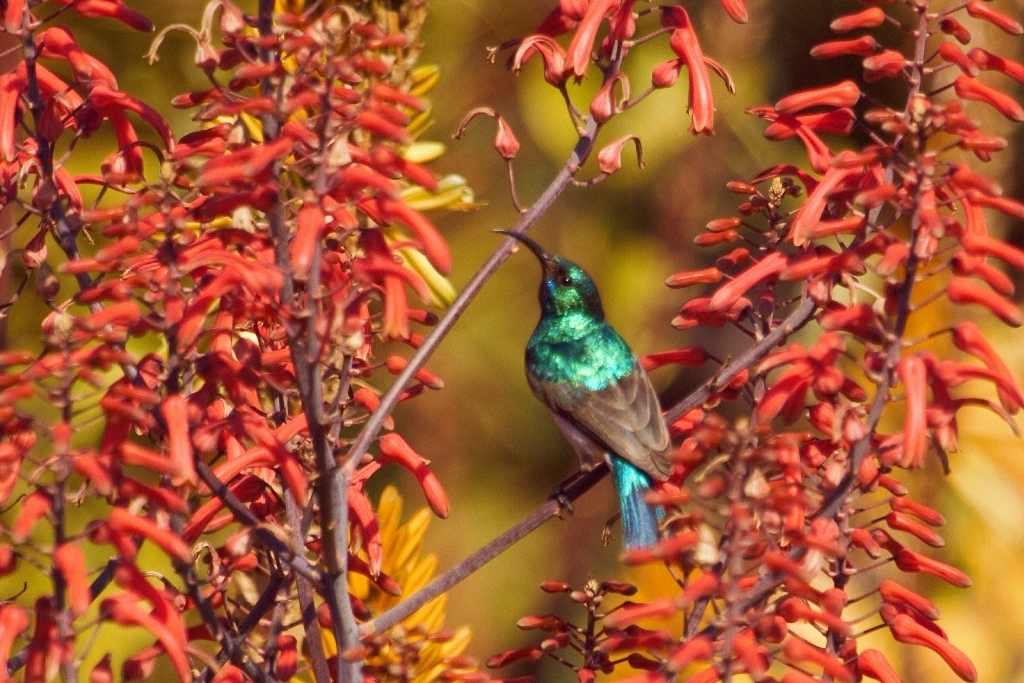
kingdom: Animalia
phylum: Chordata
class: Aves
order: Passeriformes
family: Nectariniidae
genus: Cinnyris
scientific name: Cinnyris talatala
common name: White-bellied sunbird
